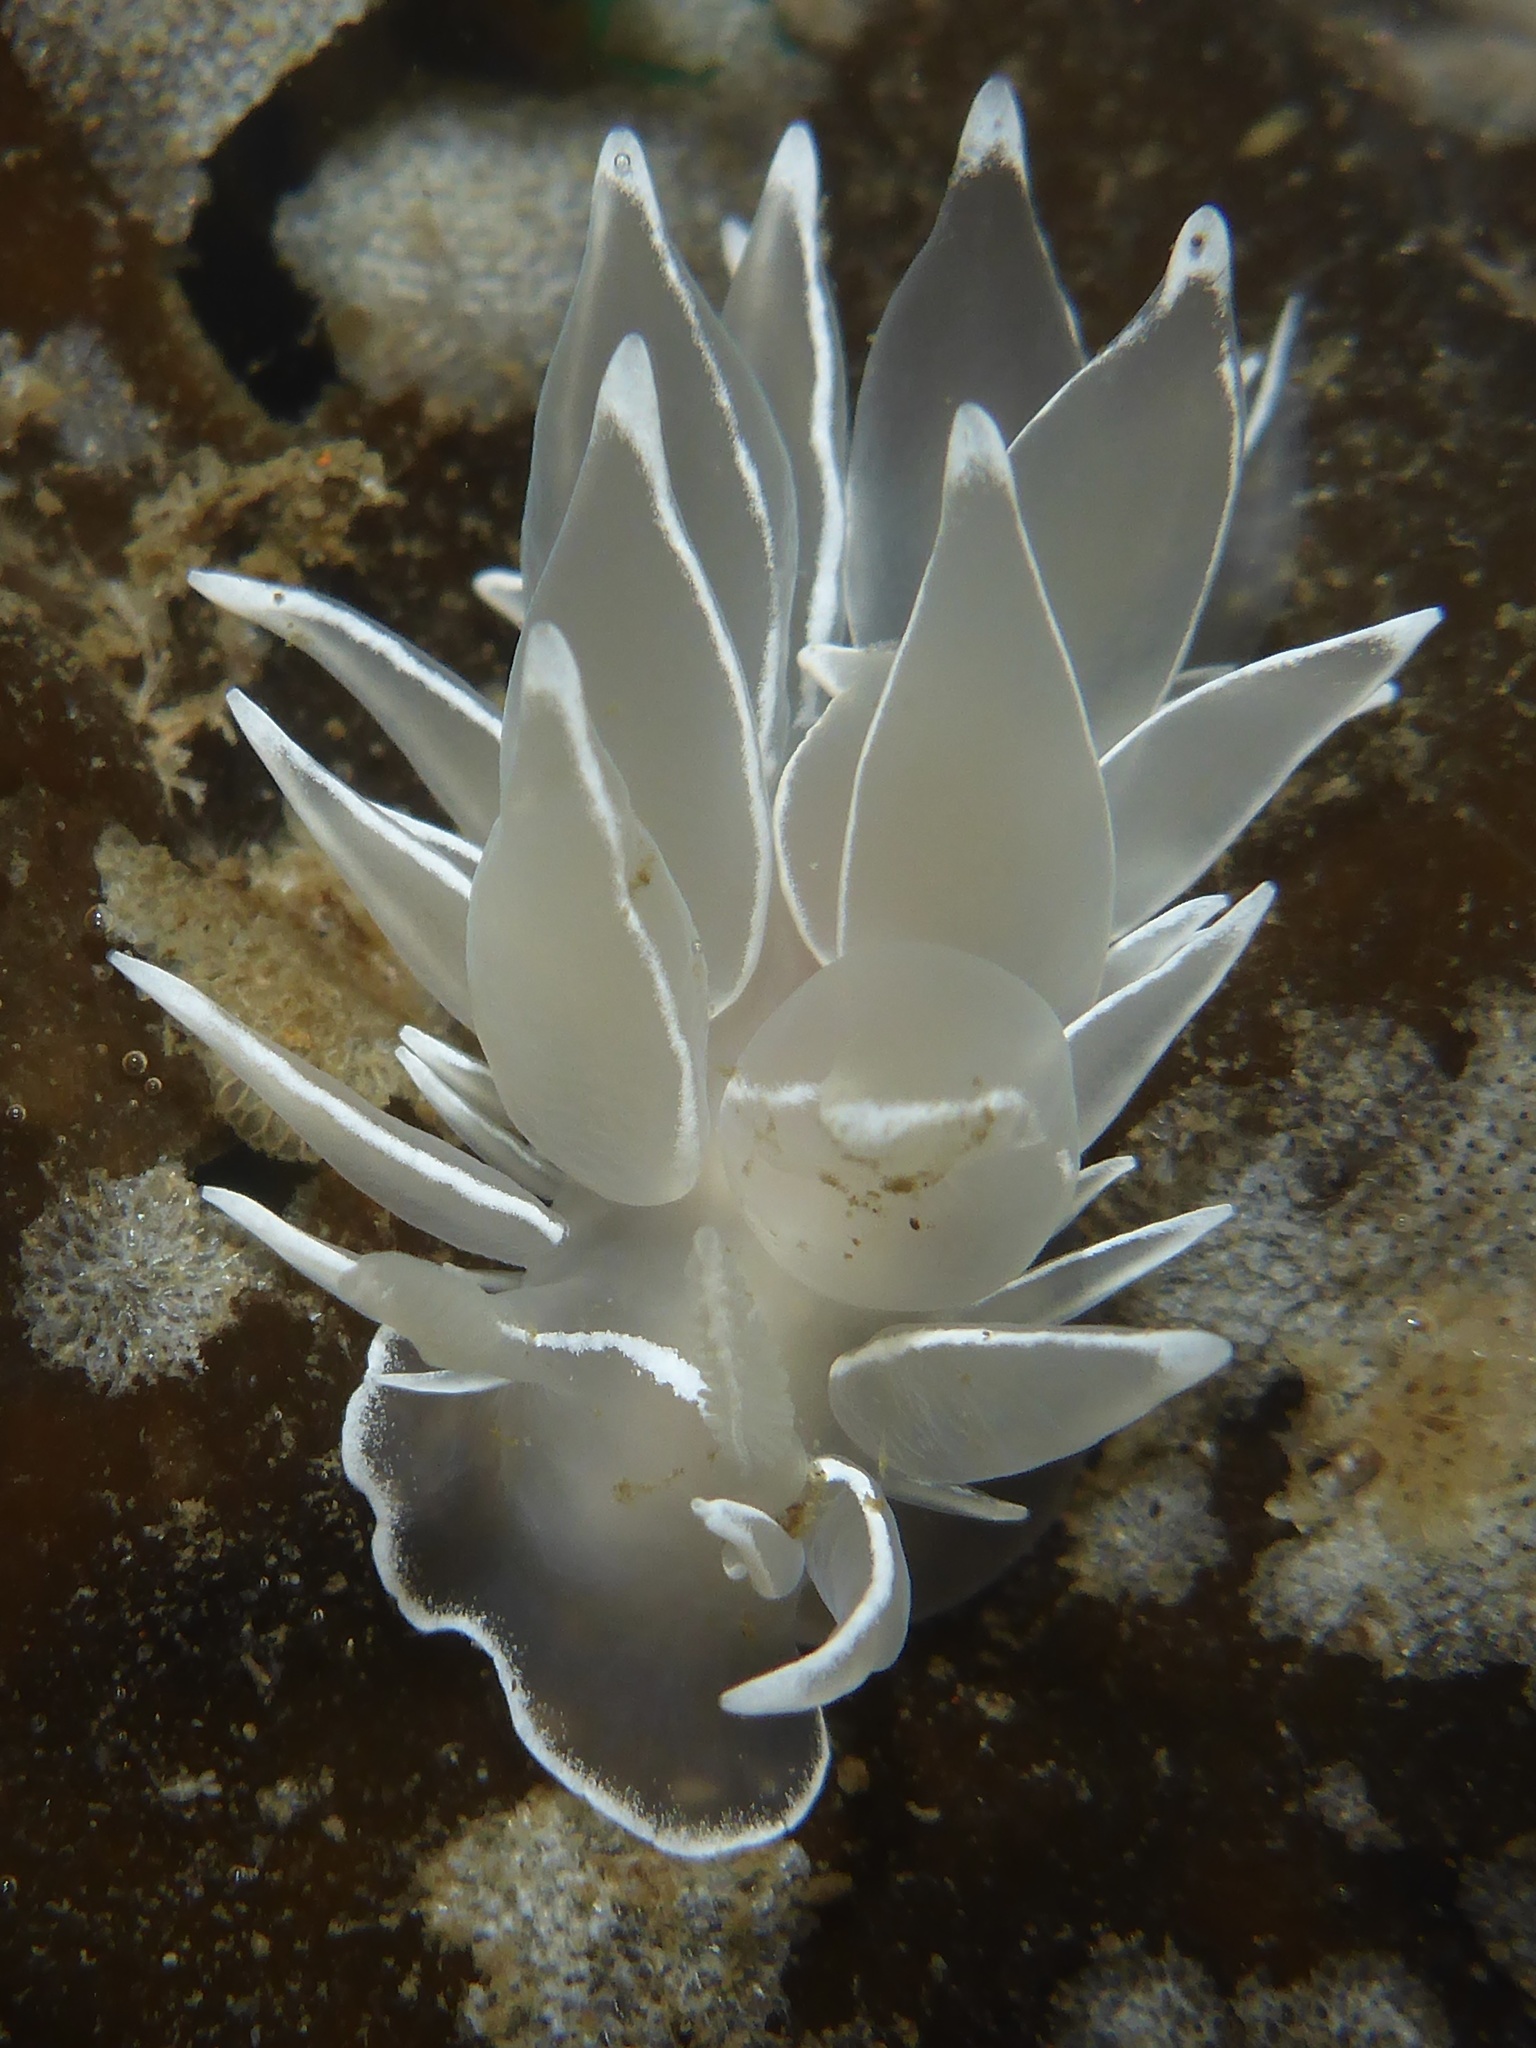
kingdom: Animalia
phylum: Mollusca
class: Gastropoda
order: Nudibranchia
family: Dironidae
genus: Dirona
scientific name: Dirona albolineata
